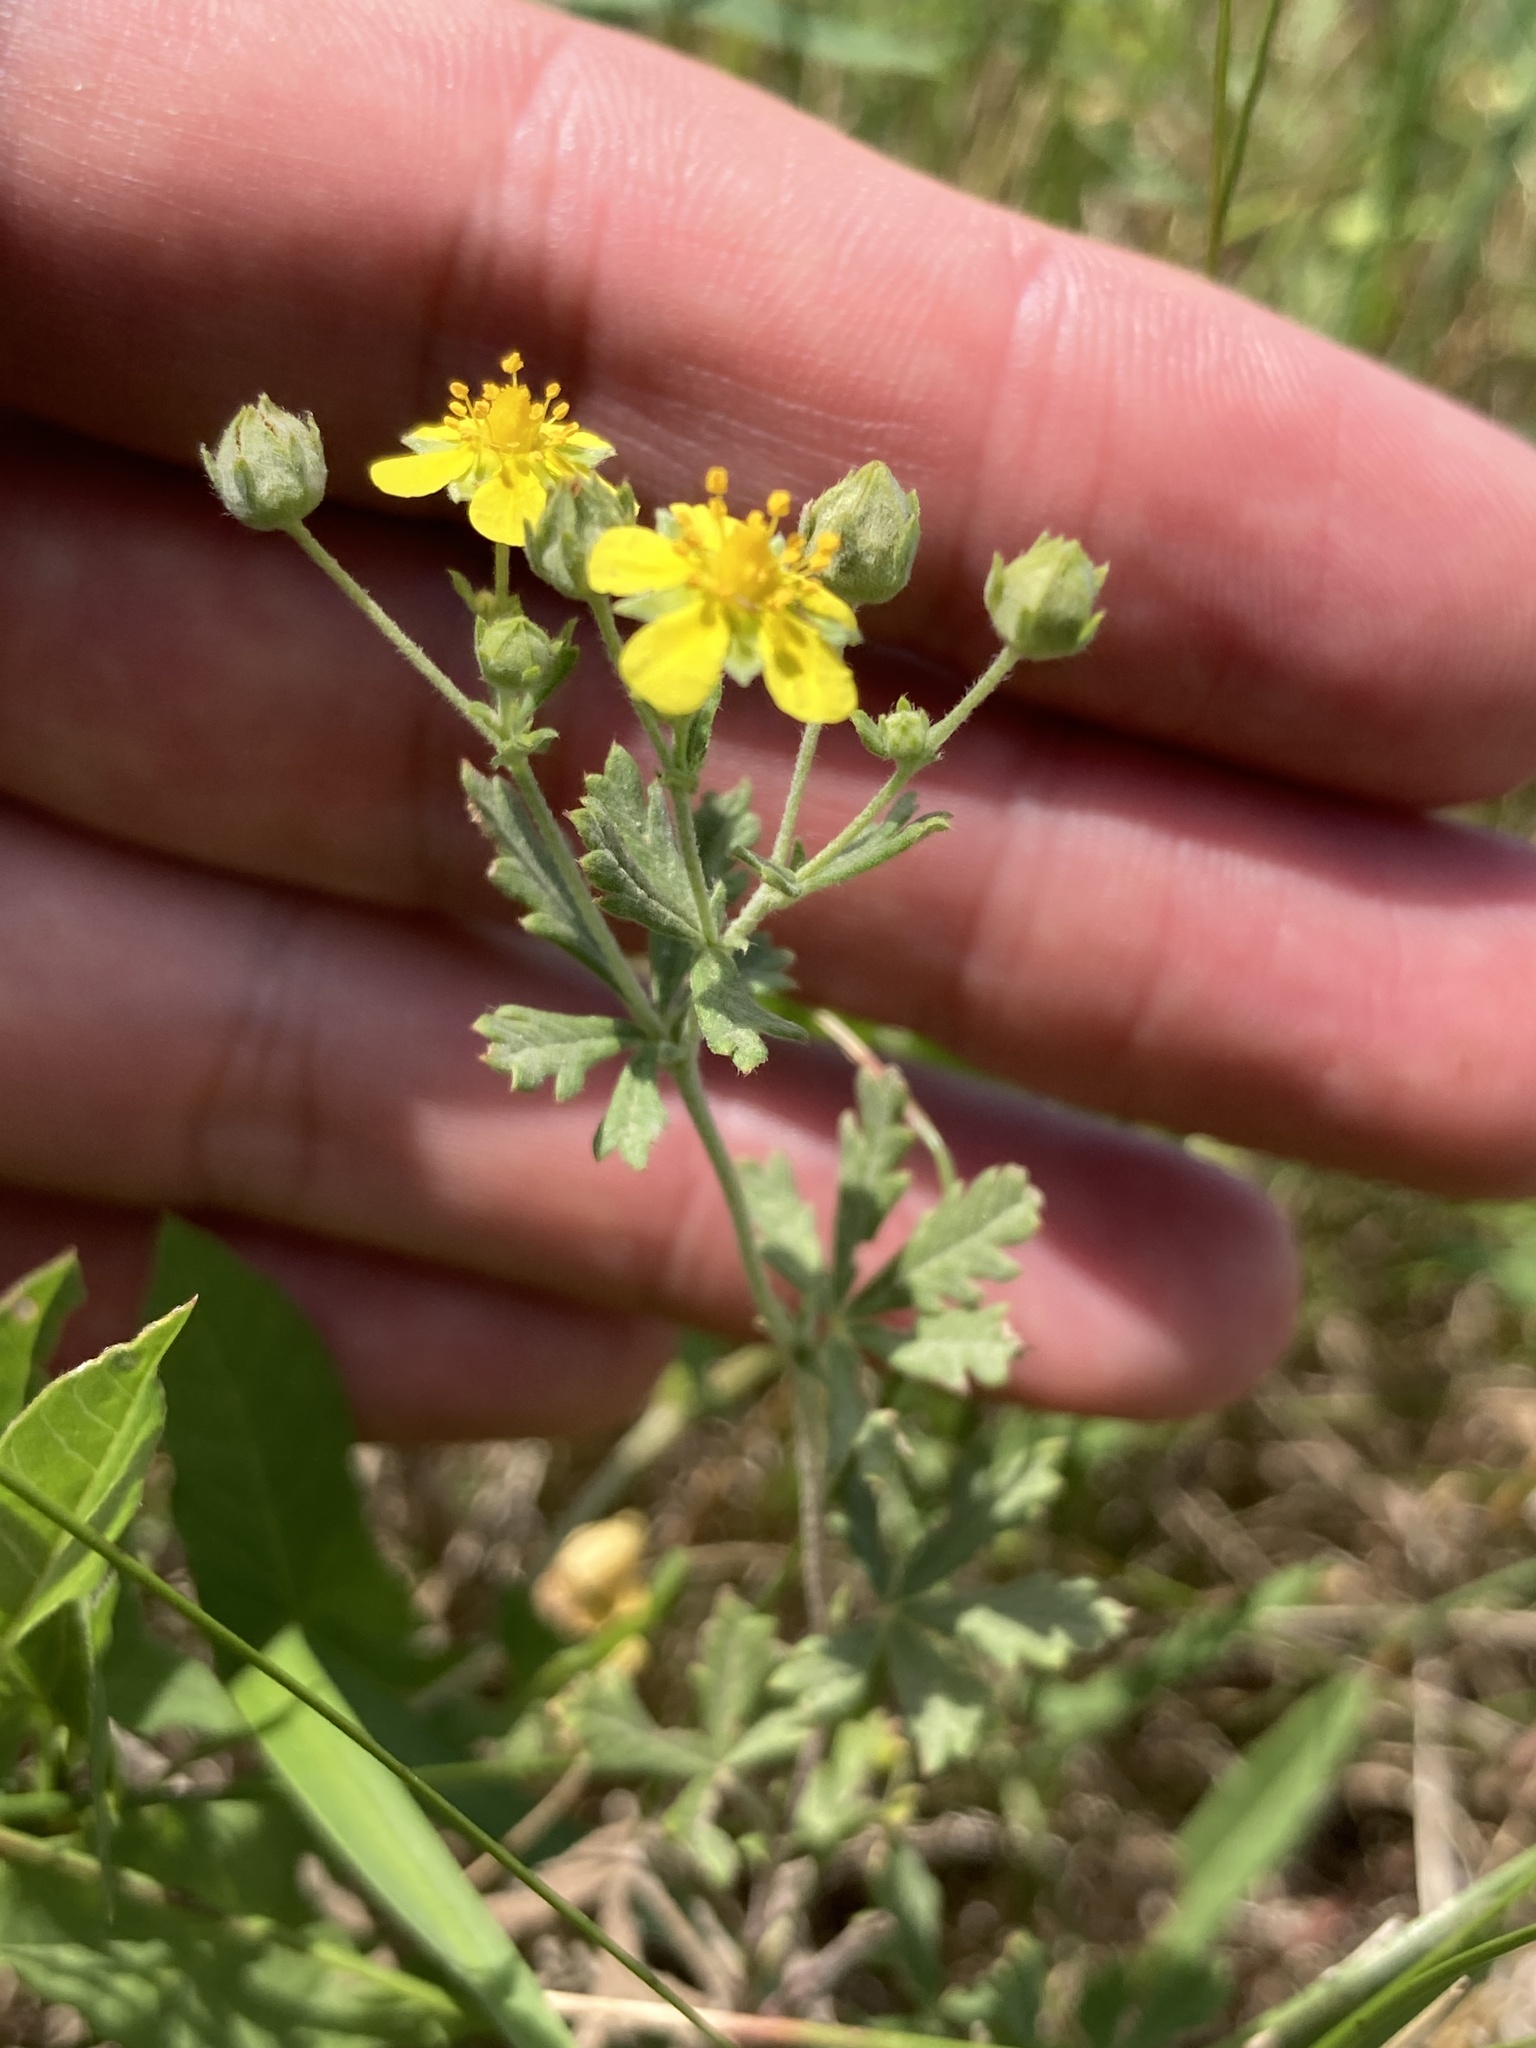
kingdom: Plantae
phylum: Tracheophyta
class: Magnoliopsida
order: Rosales
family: Rosaceae
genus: Potentilla
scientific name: Potentilla argentea
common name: Hoary cinquefoil
